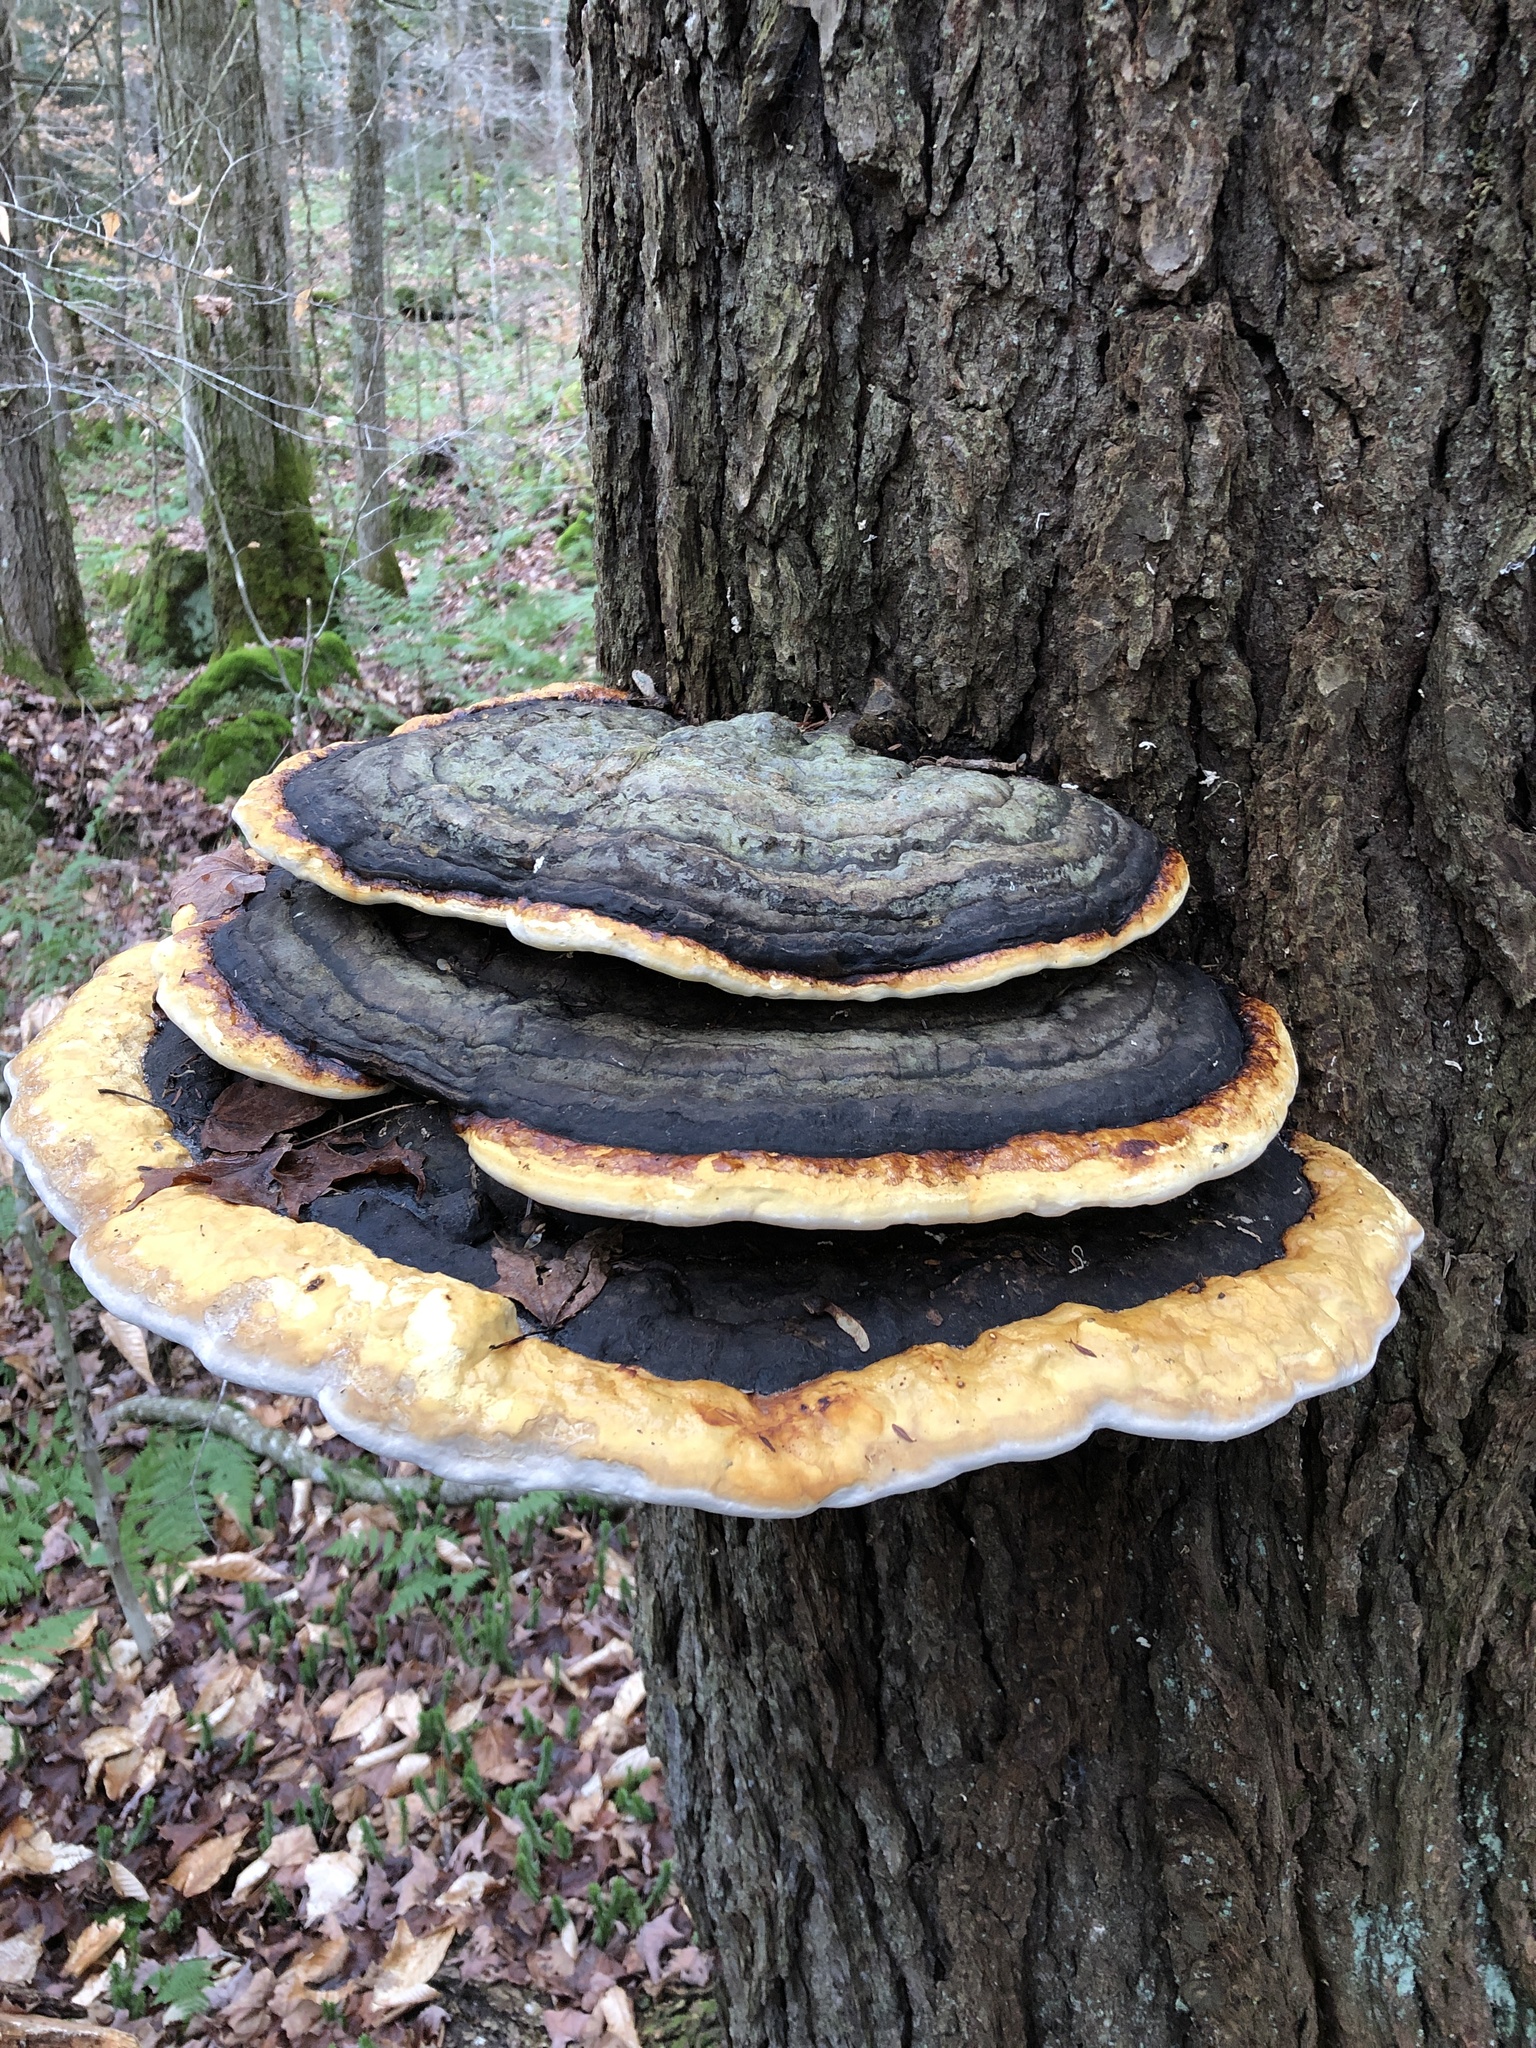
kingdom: Fungi
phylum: Basidiomycota
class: Agaricomycetes
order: Polyporales
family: Fomitopsidaceae
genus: Fomitopsis
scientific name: Fomitopsis mounceae
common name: Northern red belt
